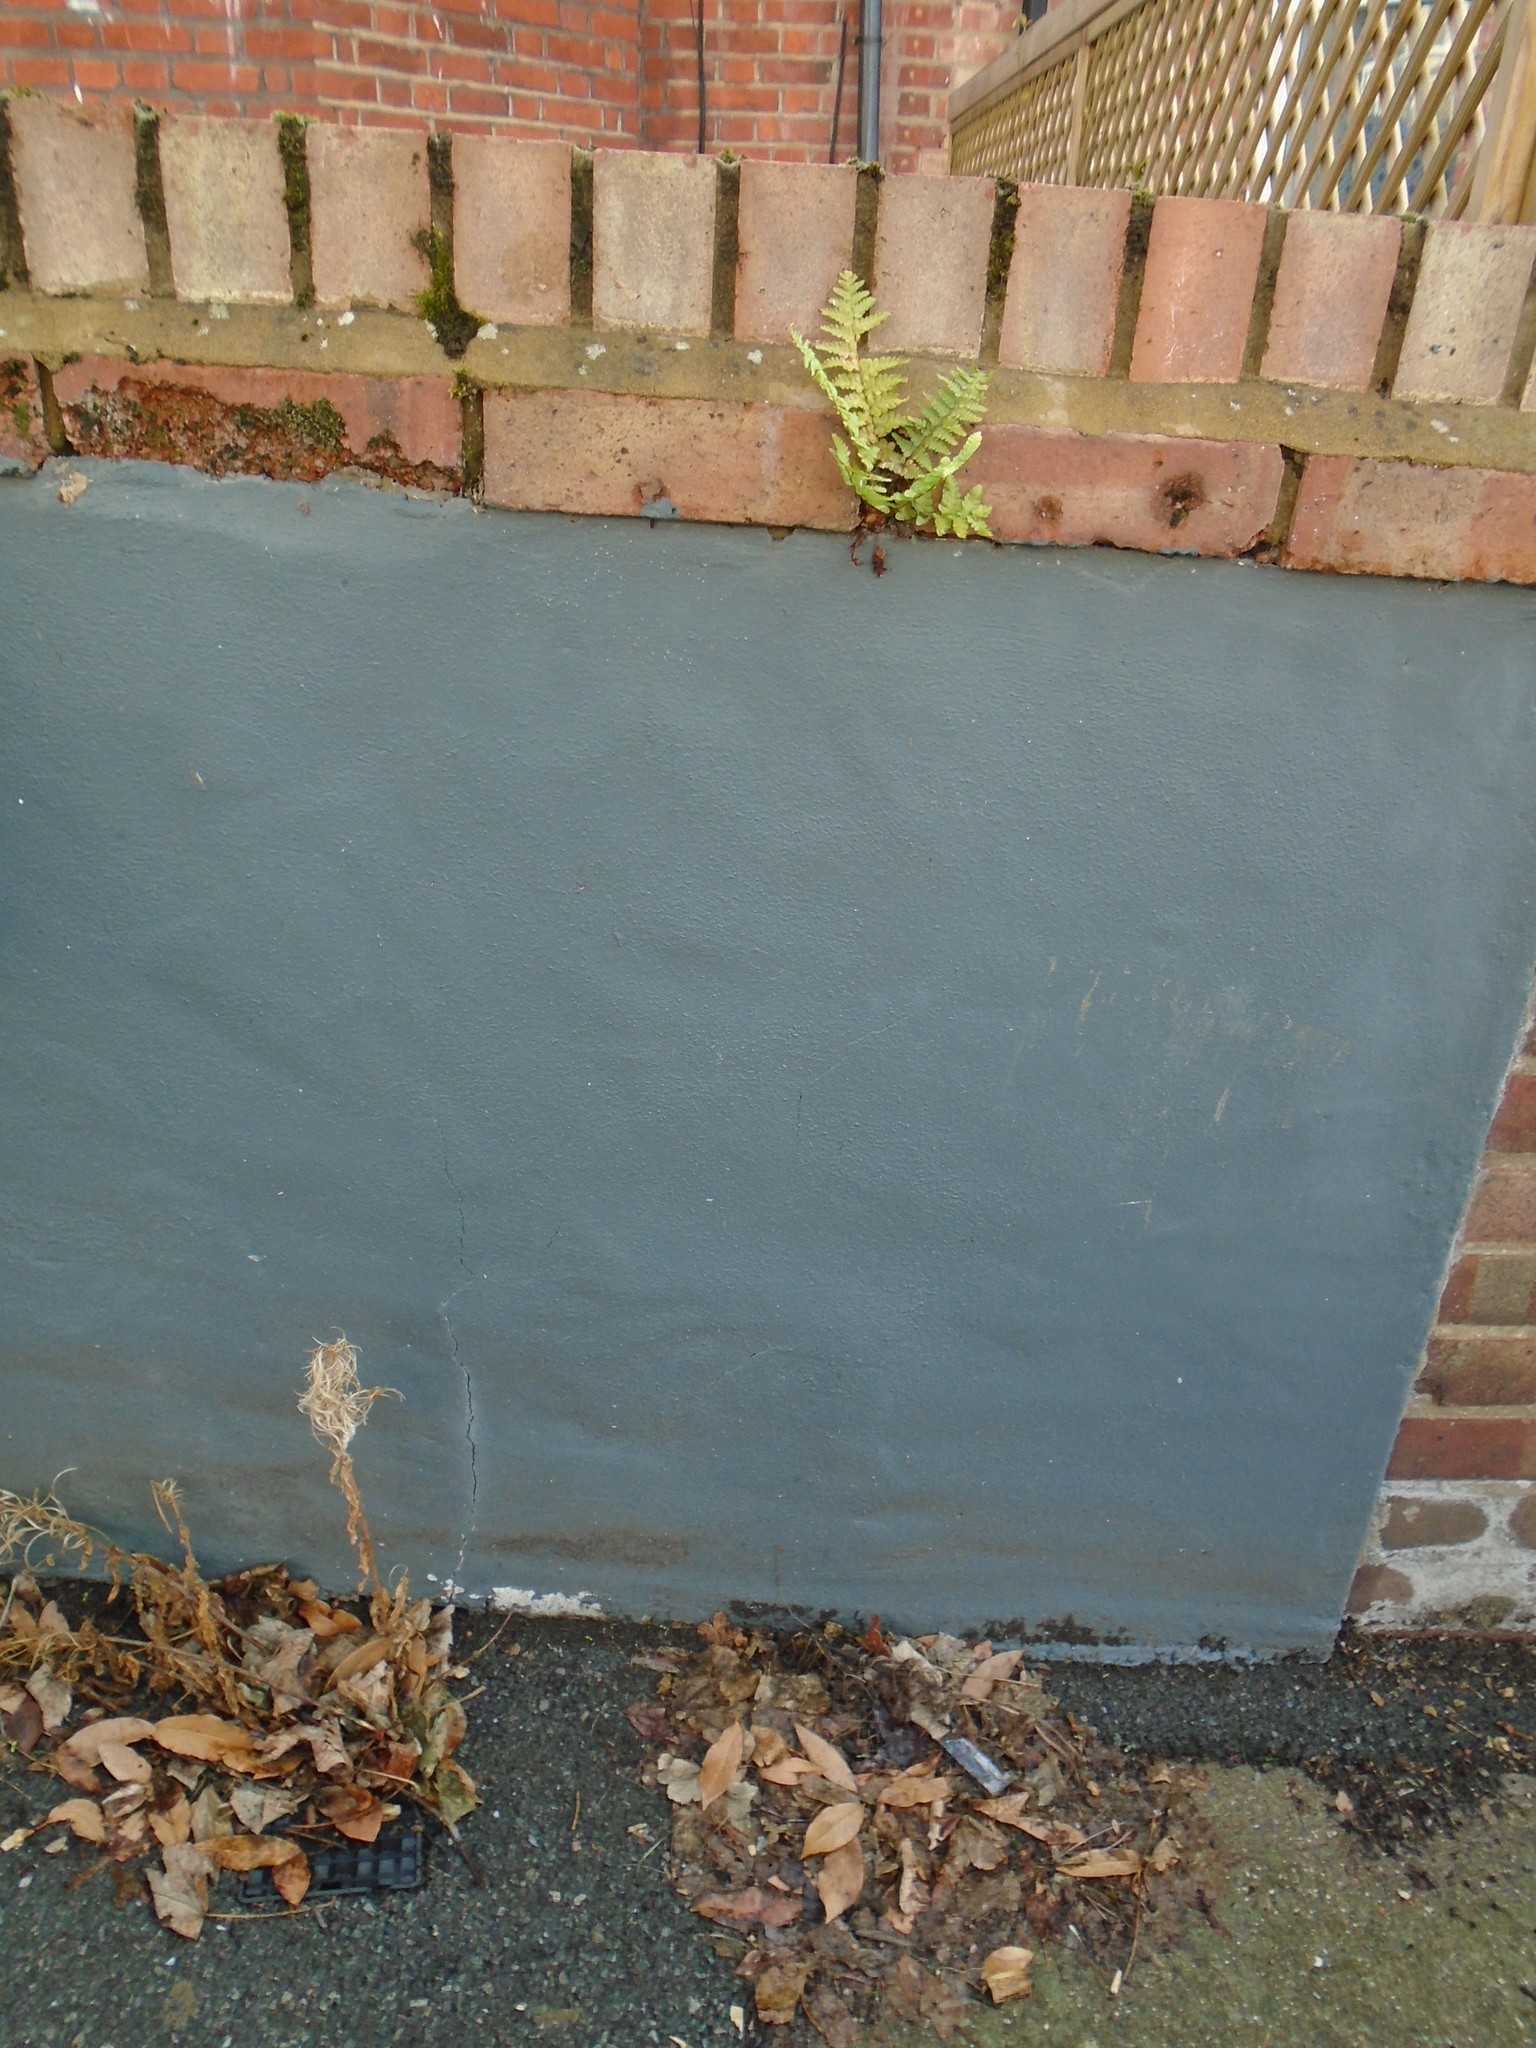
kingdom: Plantae
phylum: Tracheophyta
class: Polypodiopsida
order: Polypodiales
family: Dryopteridaceae
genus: Dryopteris
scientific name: Dryopteris filix-mas
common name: Male fern
